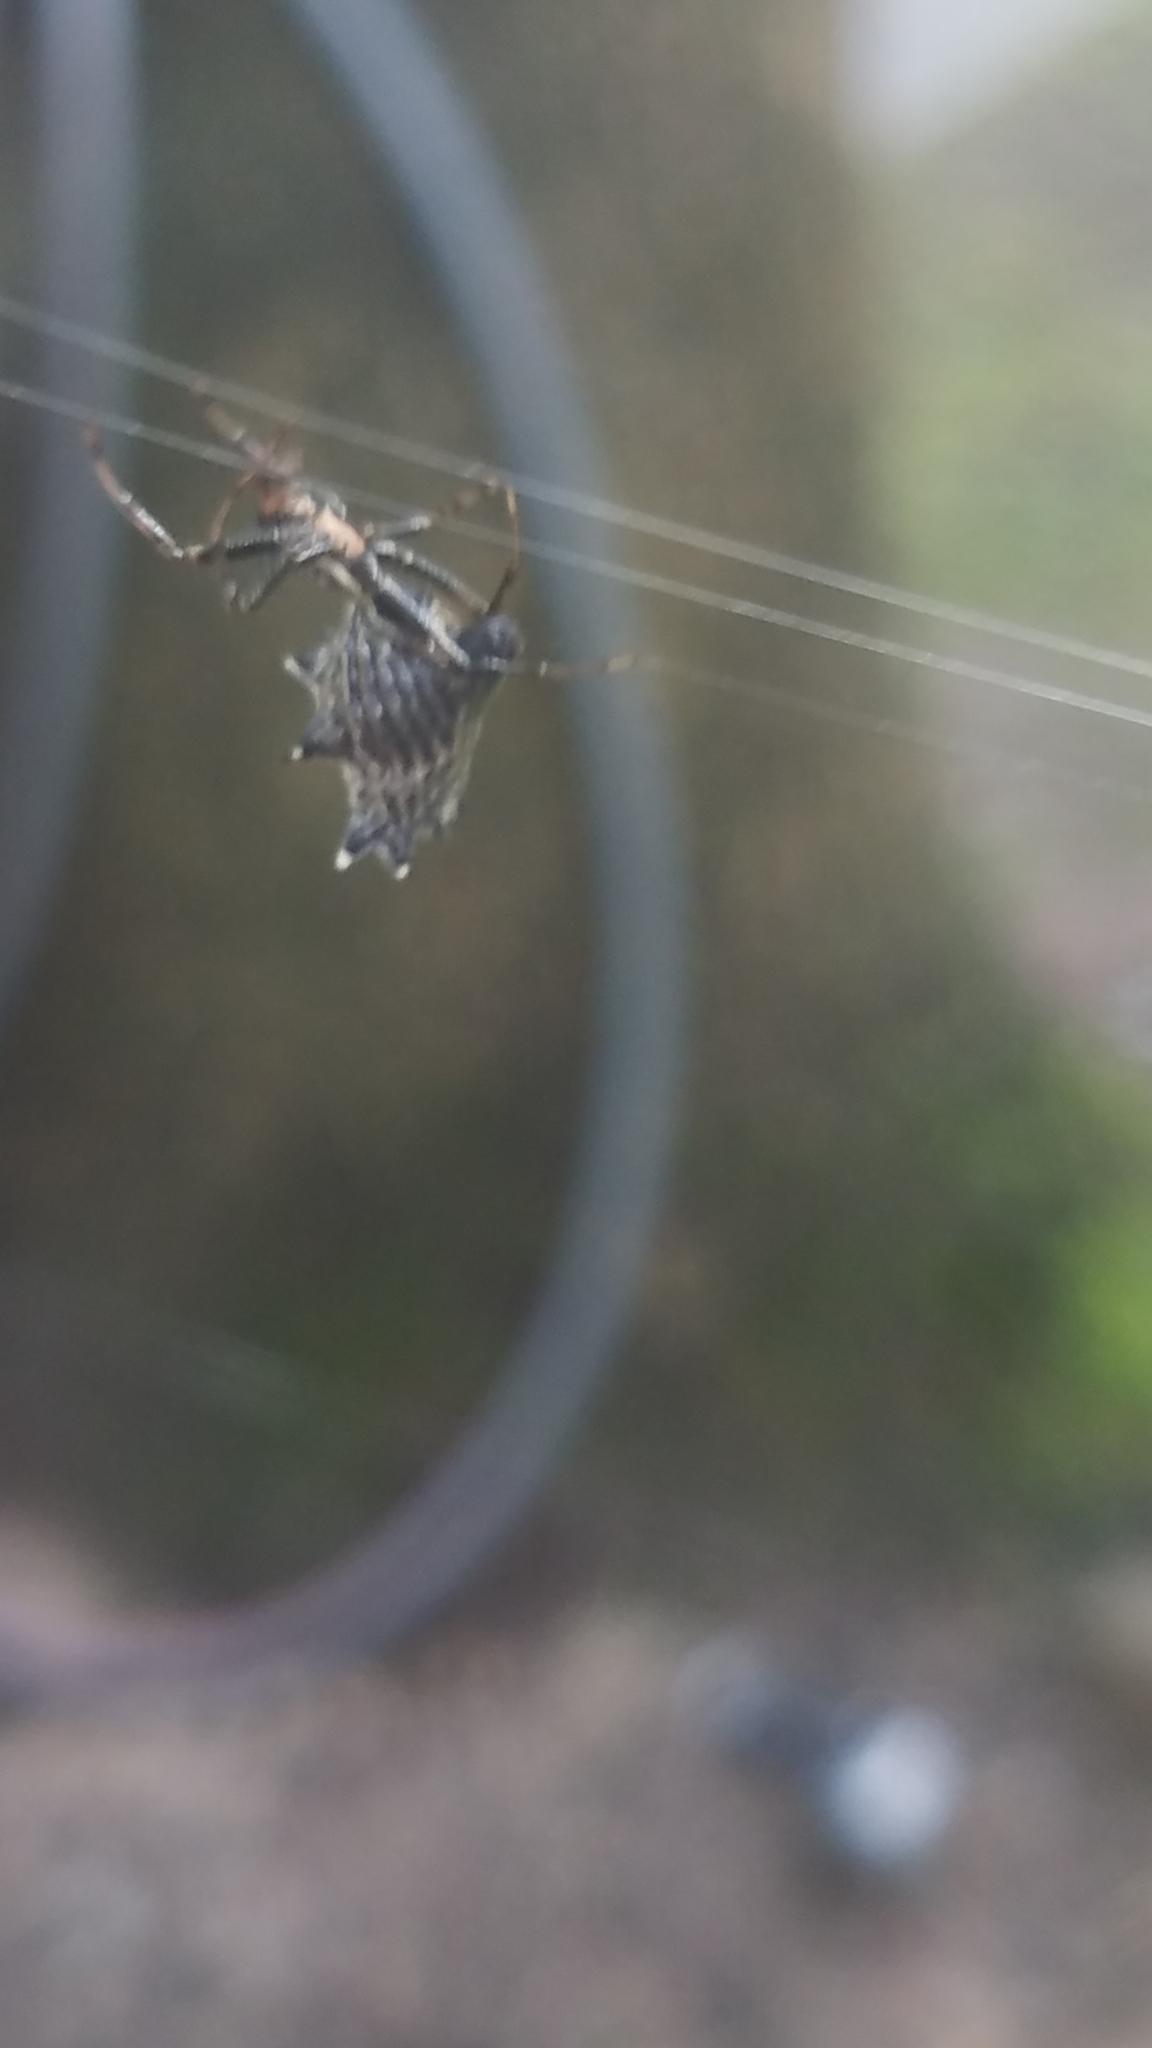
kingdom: Animalia
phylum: Arthropoda
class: Arachnida
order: Araneae
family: Araneidae
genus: Micrathena
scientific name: Micrathena gracilis
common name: Orb weavers
